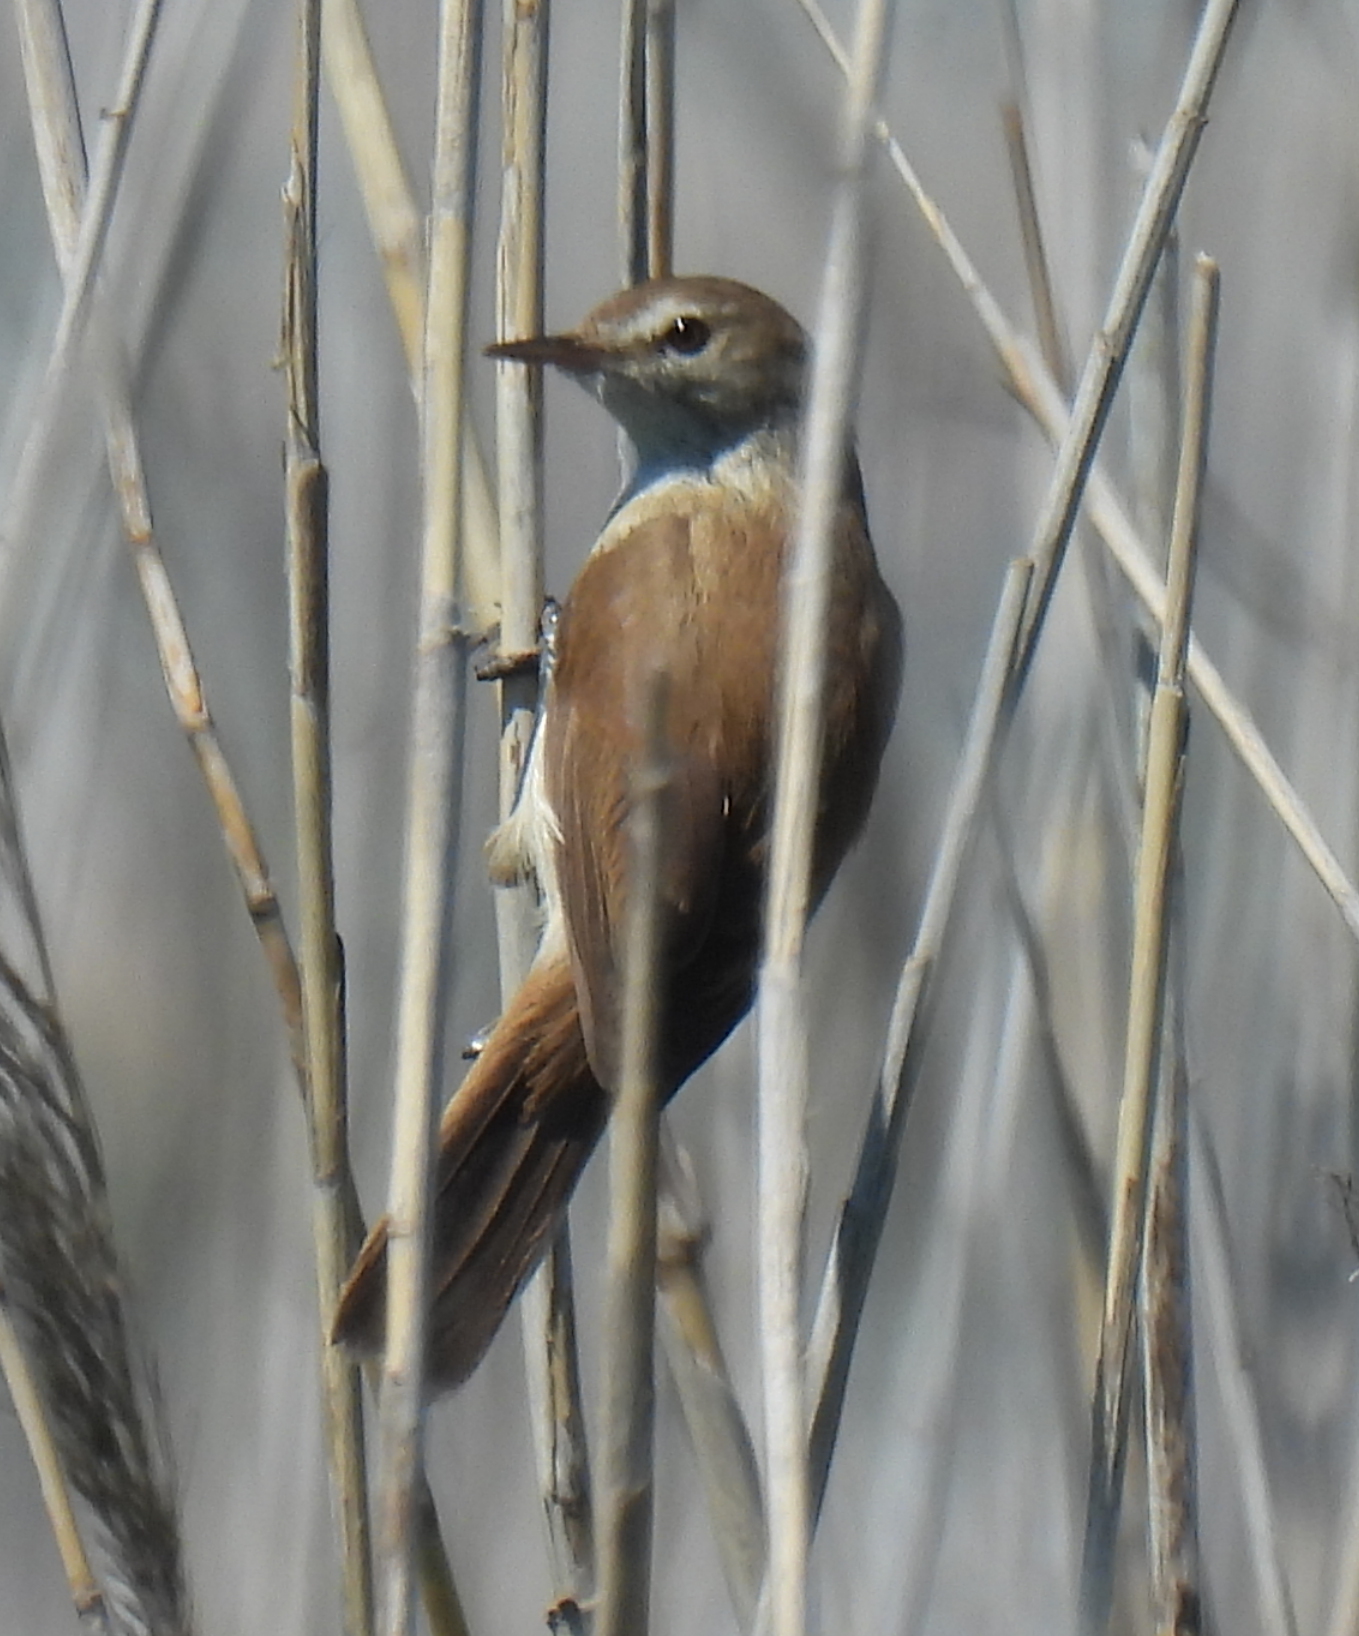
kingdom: Animalia
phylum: Chordata
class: Aves
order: Passeriformes
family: Acrocephalidae
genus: Acrocephalus
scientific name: Acrocephalus gracilirostris
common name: Lesser swamp warbler
